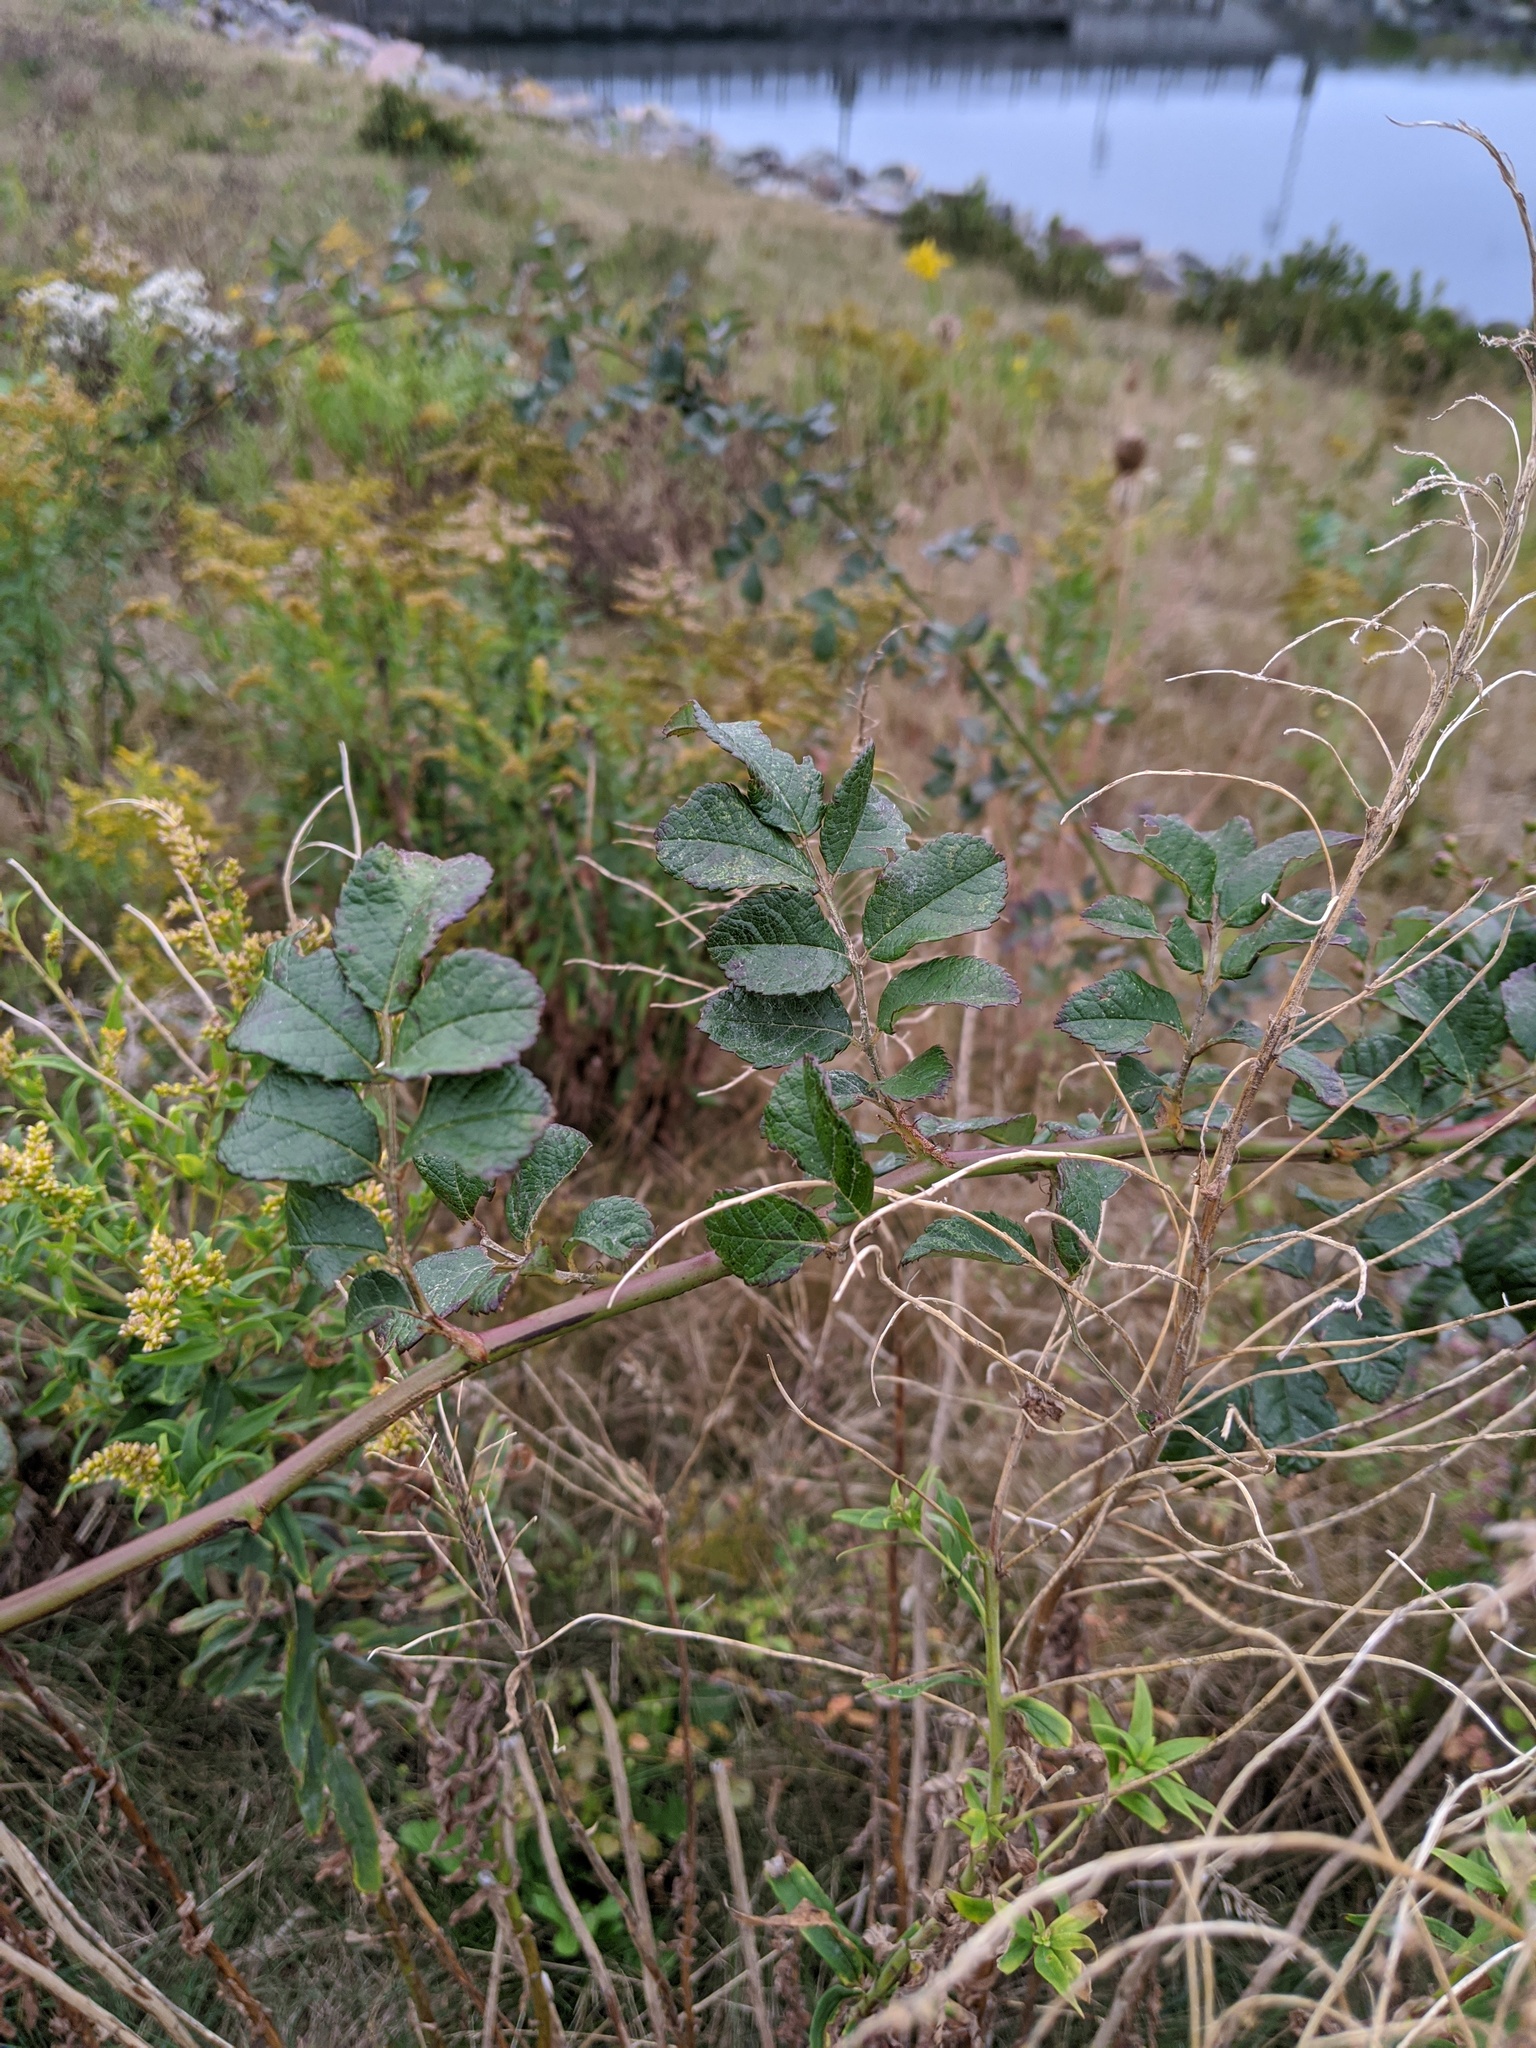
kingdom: Plantae
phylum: Tracheophyta
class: Magnoliopsida
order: Rosales
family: Rosaceae
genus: Rosa
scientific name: Rosa multiflora
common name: Multiflora rose
